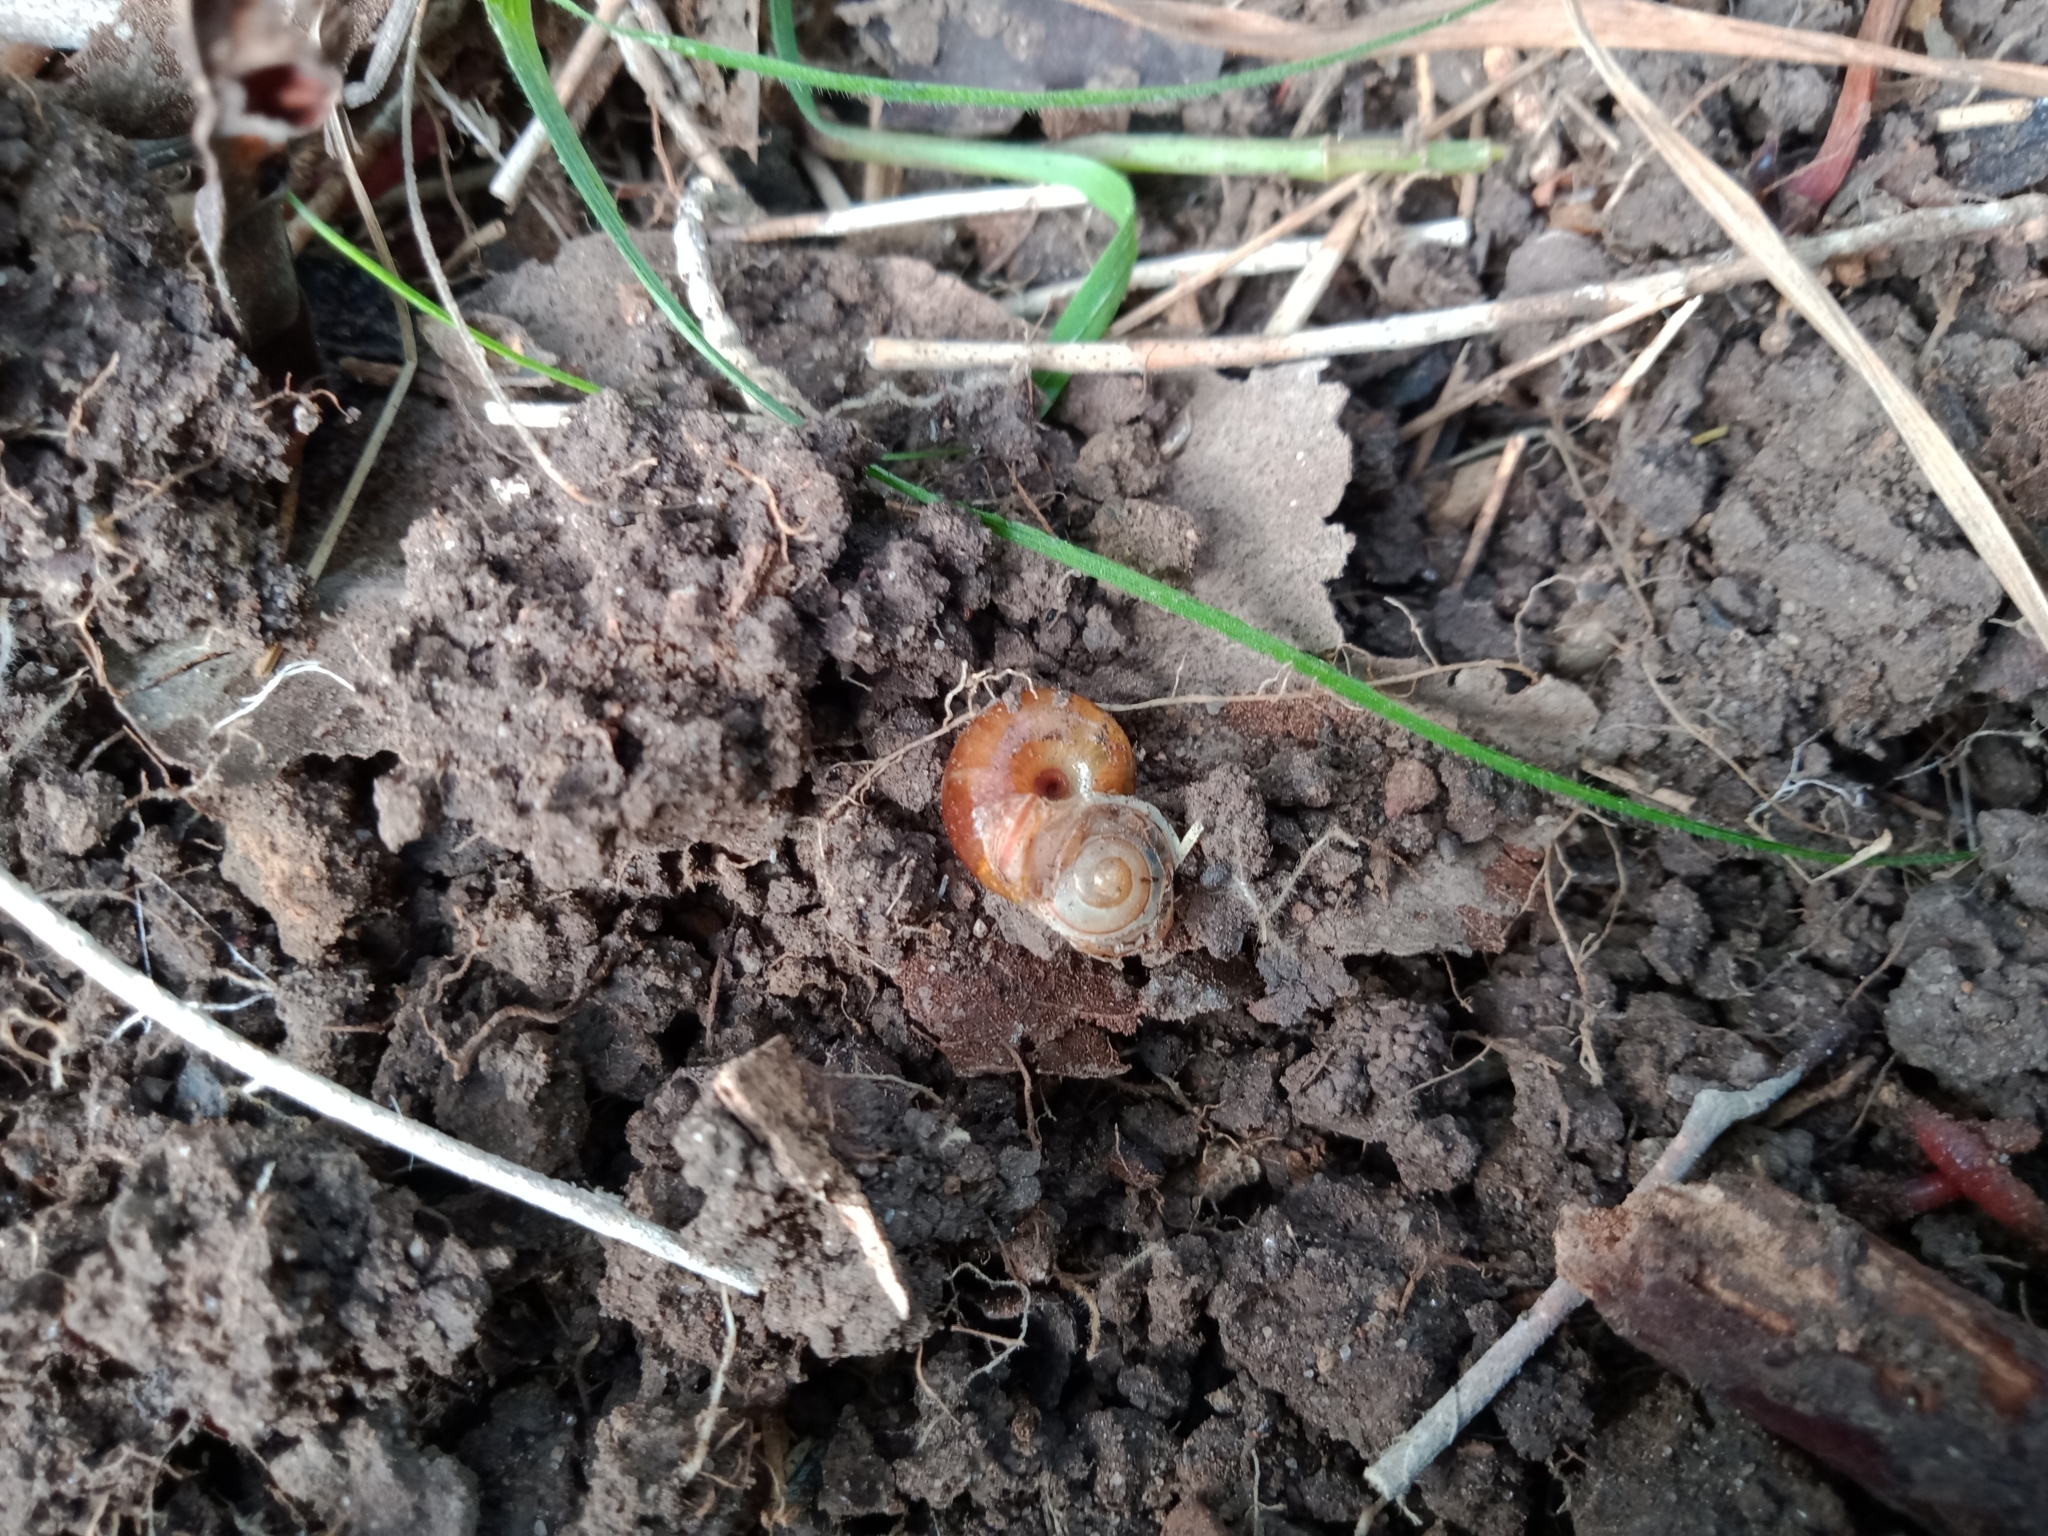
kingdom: Animalia
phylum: Mollusca
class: Gastropoda
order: Stylommatophora
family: Rhytididae
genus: Austrorhytida
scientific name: Austrorhytida capillacea
